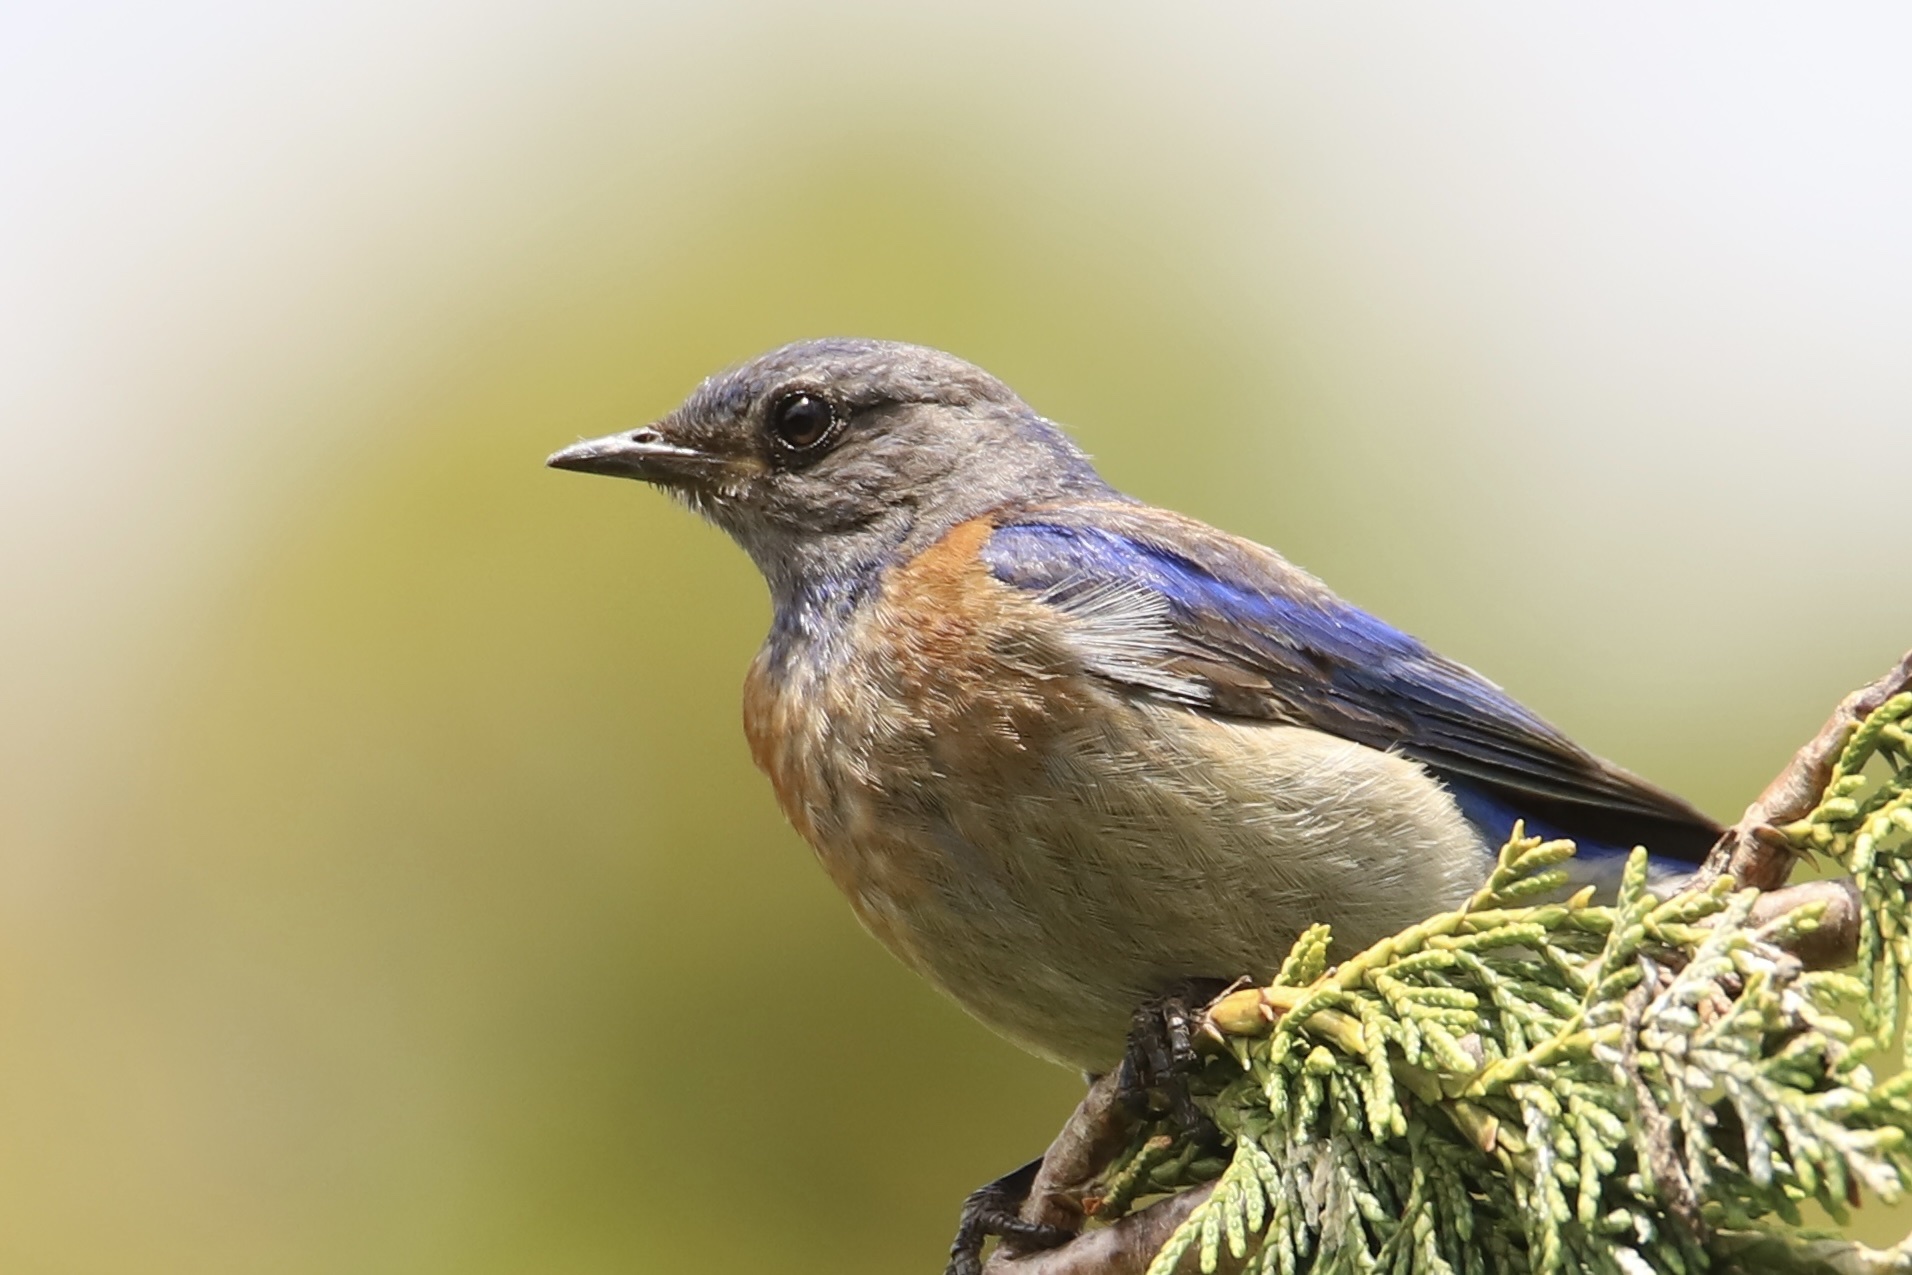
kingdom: Animalia
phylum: Chordata
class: Aves
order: Passeriformes
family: Turdidae
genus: Sialia
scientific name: Sialia mexicana
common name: Western bluebird
